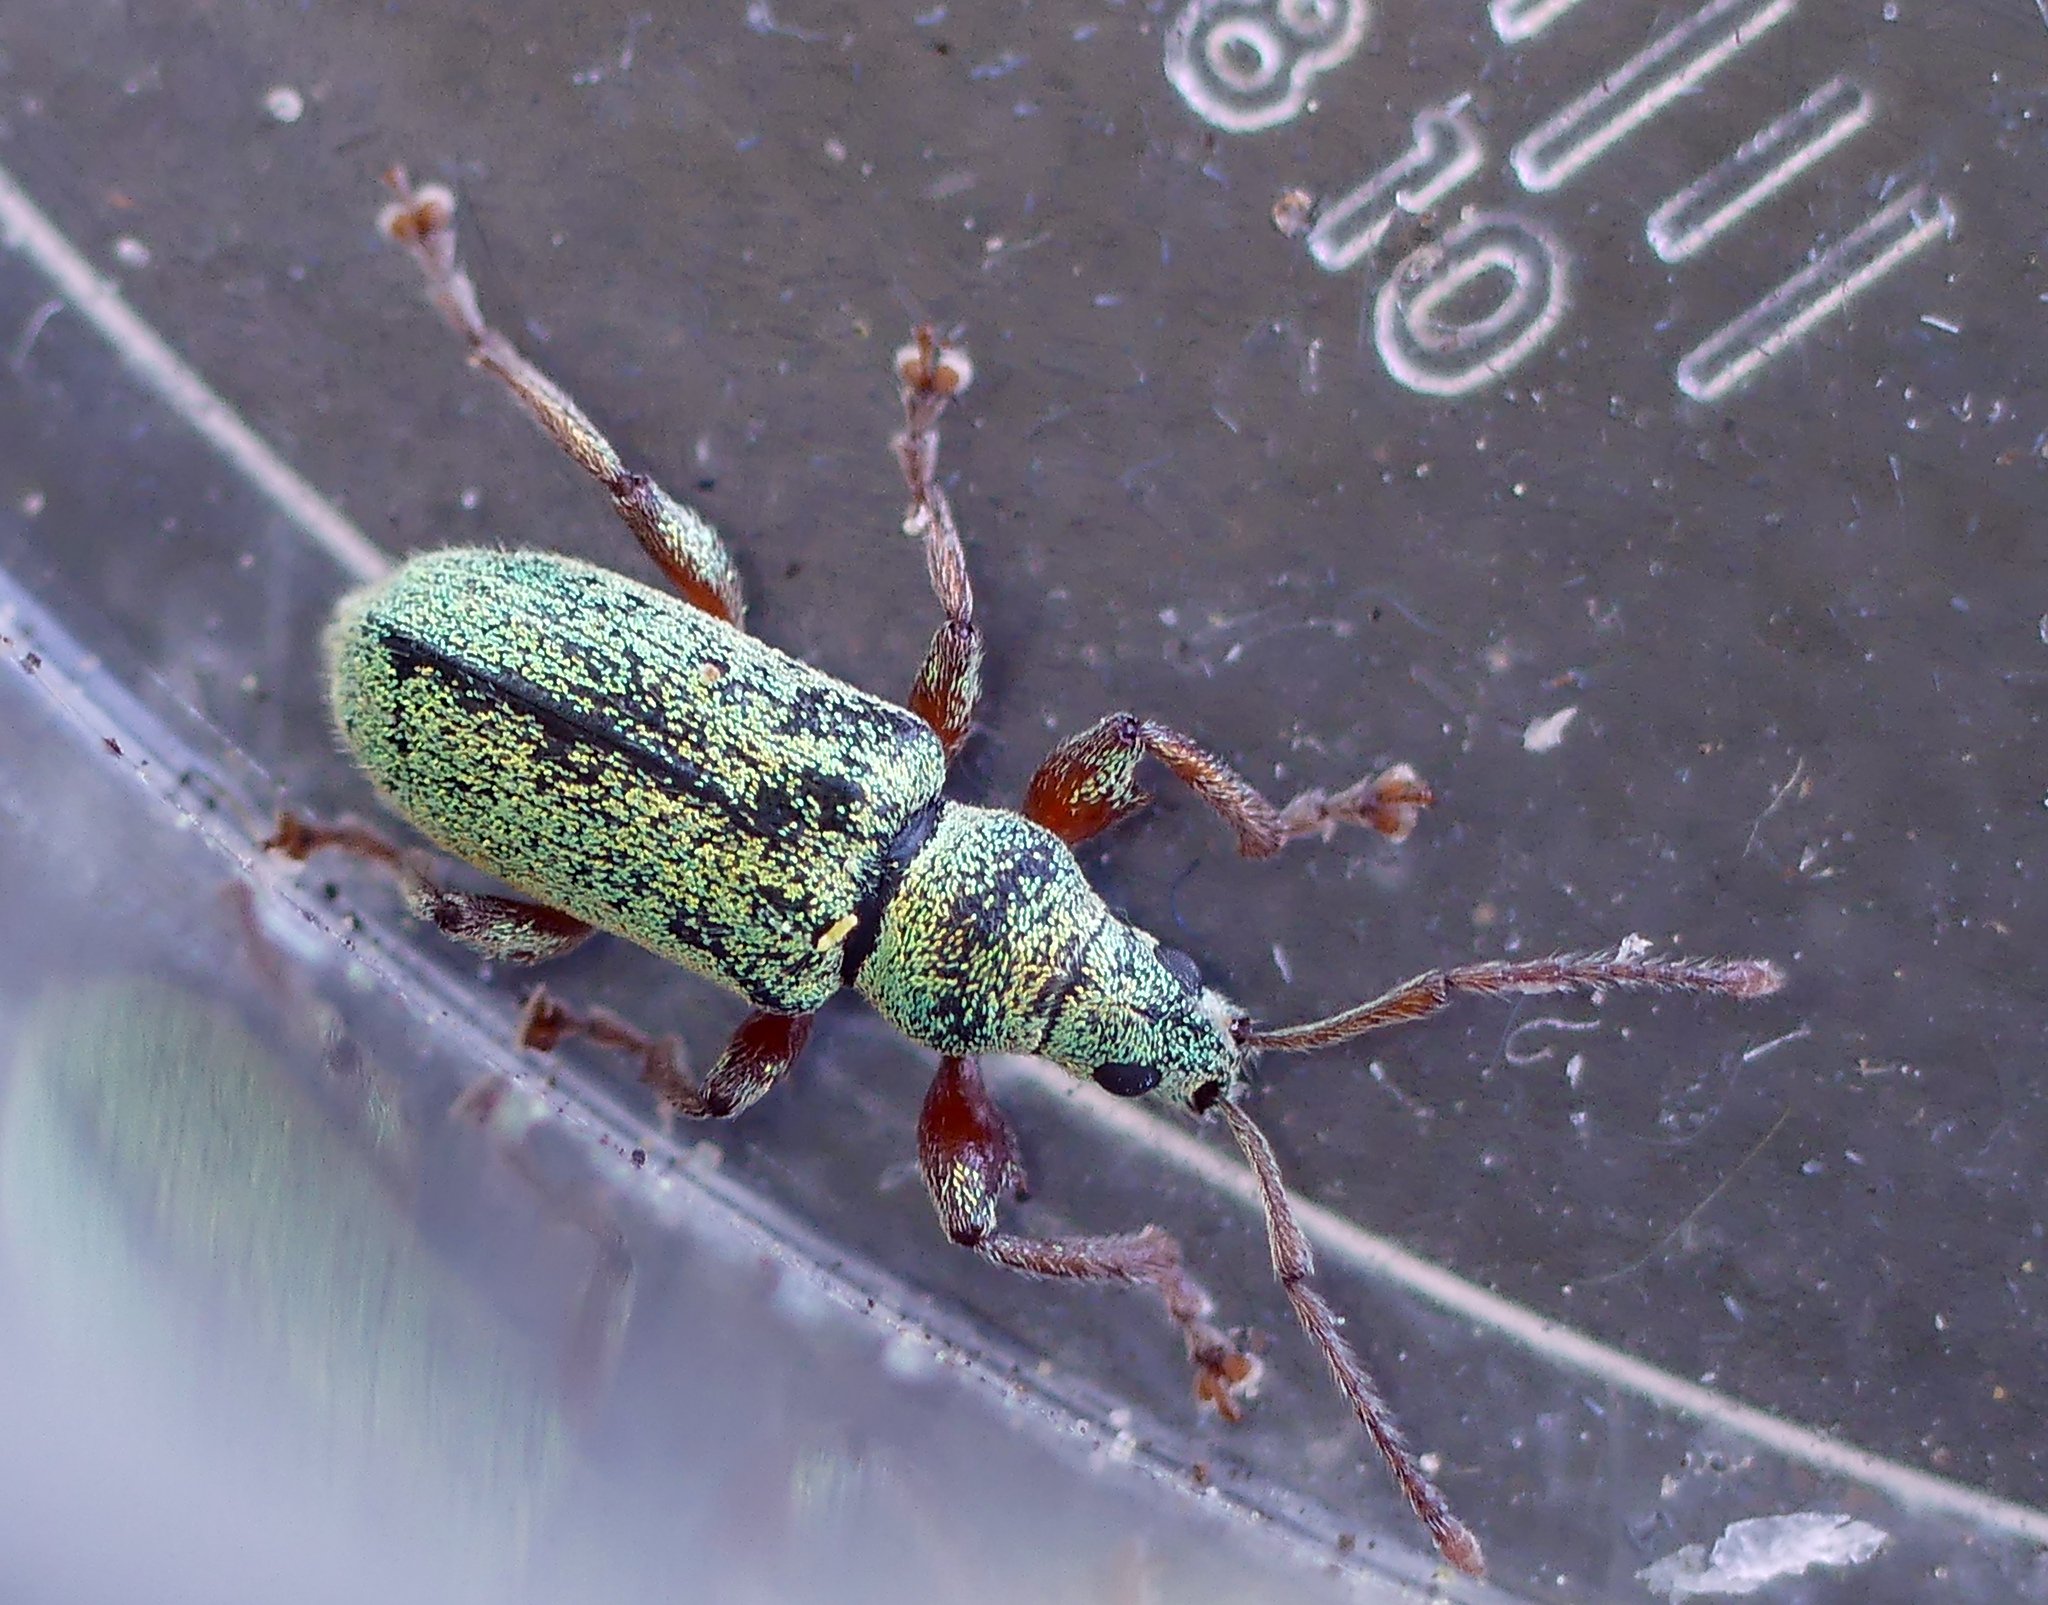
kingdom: Animalia
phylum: Arthropoda
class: Insecta
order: Coleoptera
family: Curculionidae
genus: Phyllobius
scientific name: Phyllobius argentatus
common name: Silver-green leaf weevil
